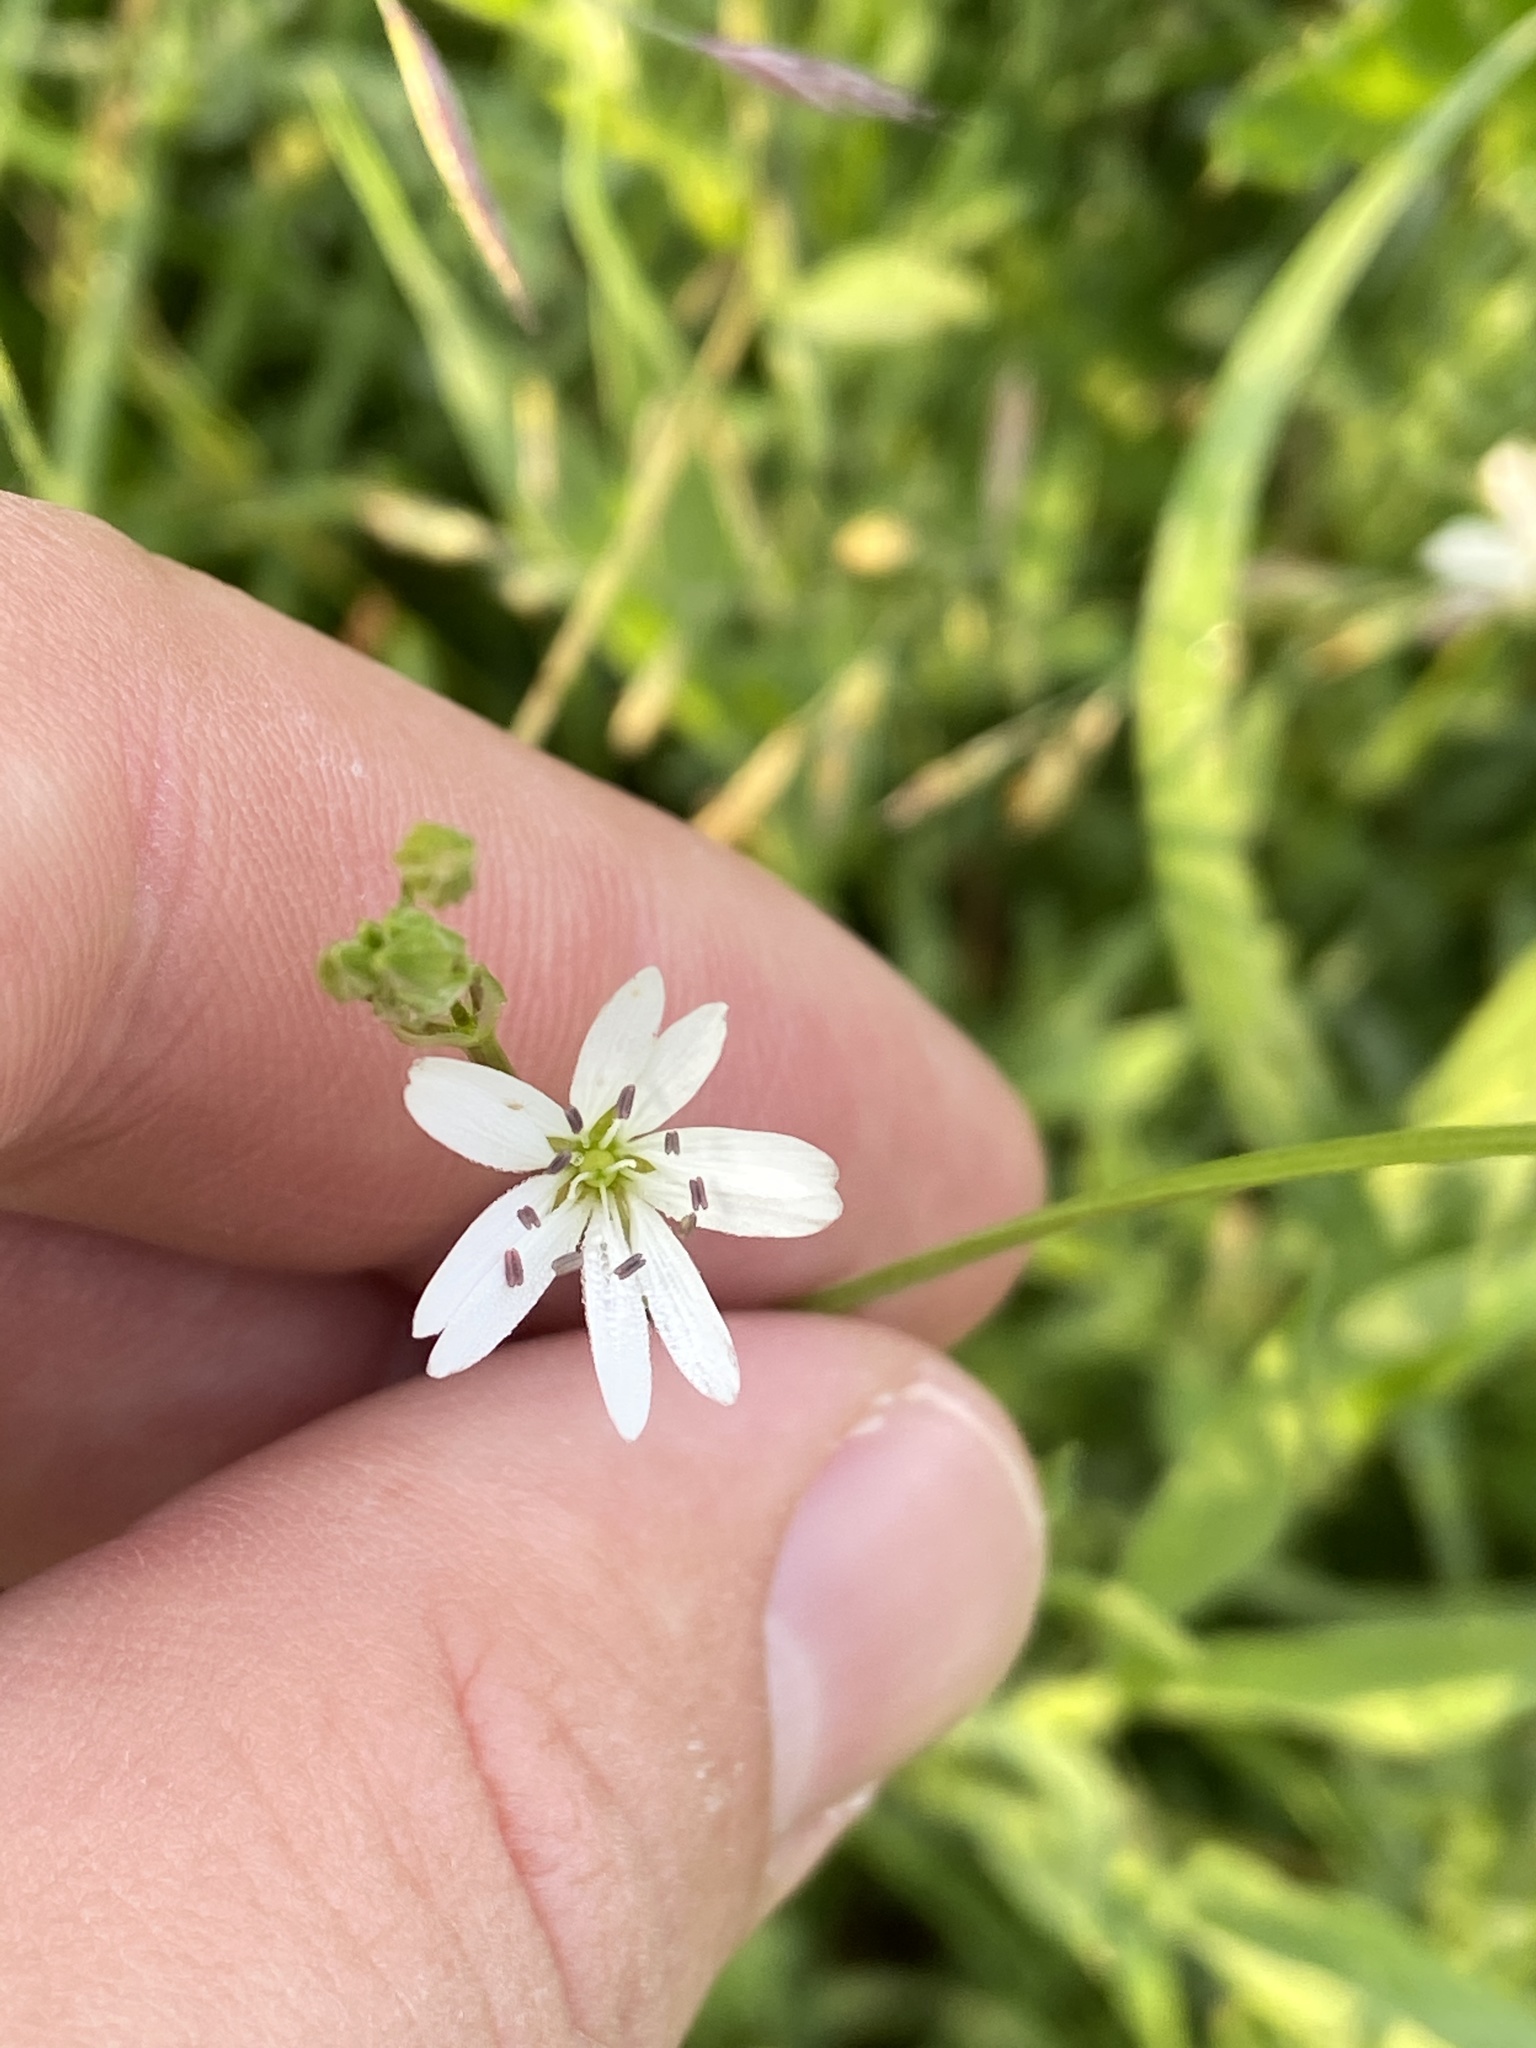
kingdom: Plantae
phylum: Tracheophyta
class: Magnoliopsida
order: Caryophyllales
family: Caryophyllaceae
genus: Stellaria
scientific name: Stellaria graminea
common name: Grass-like starwort
